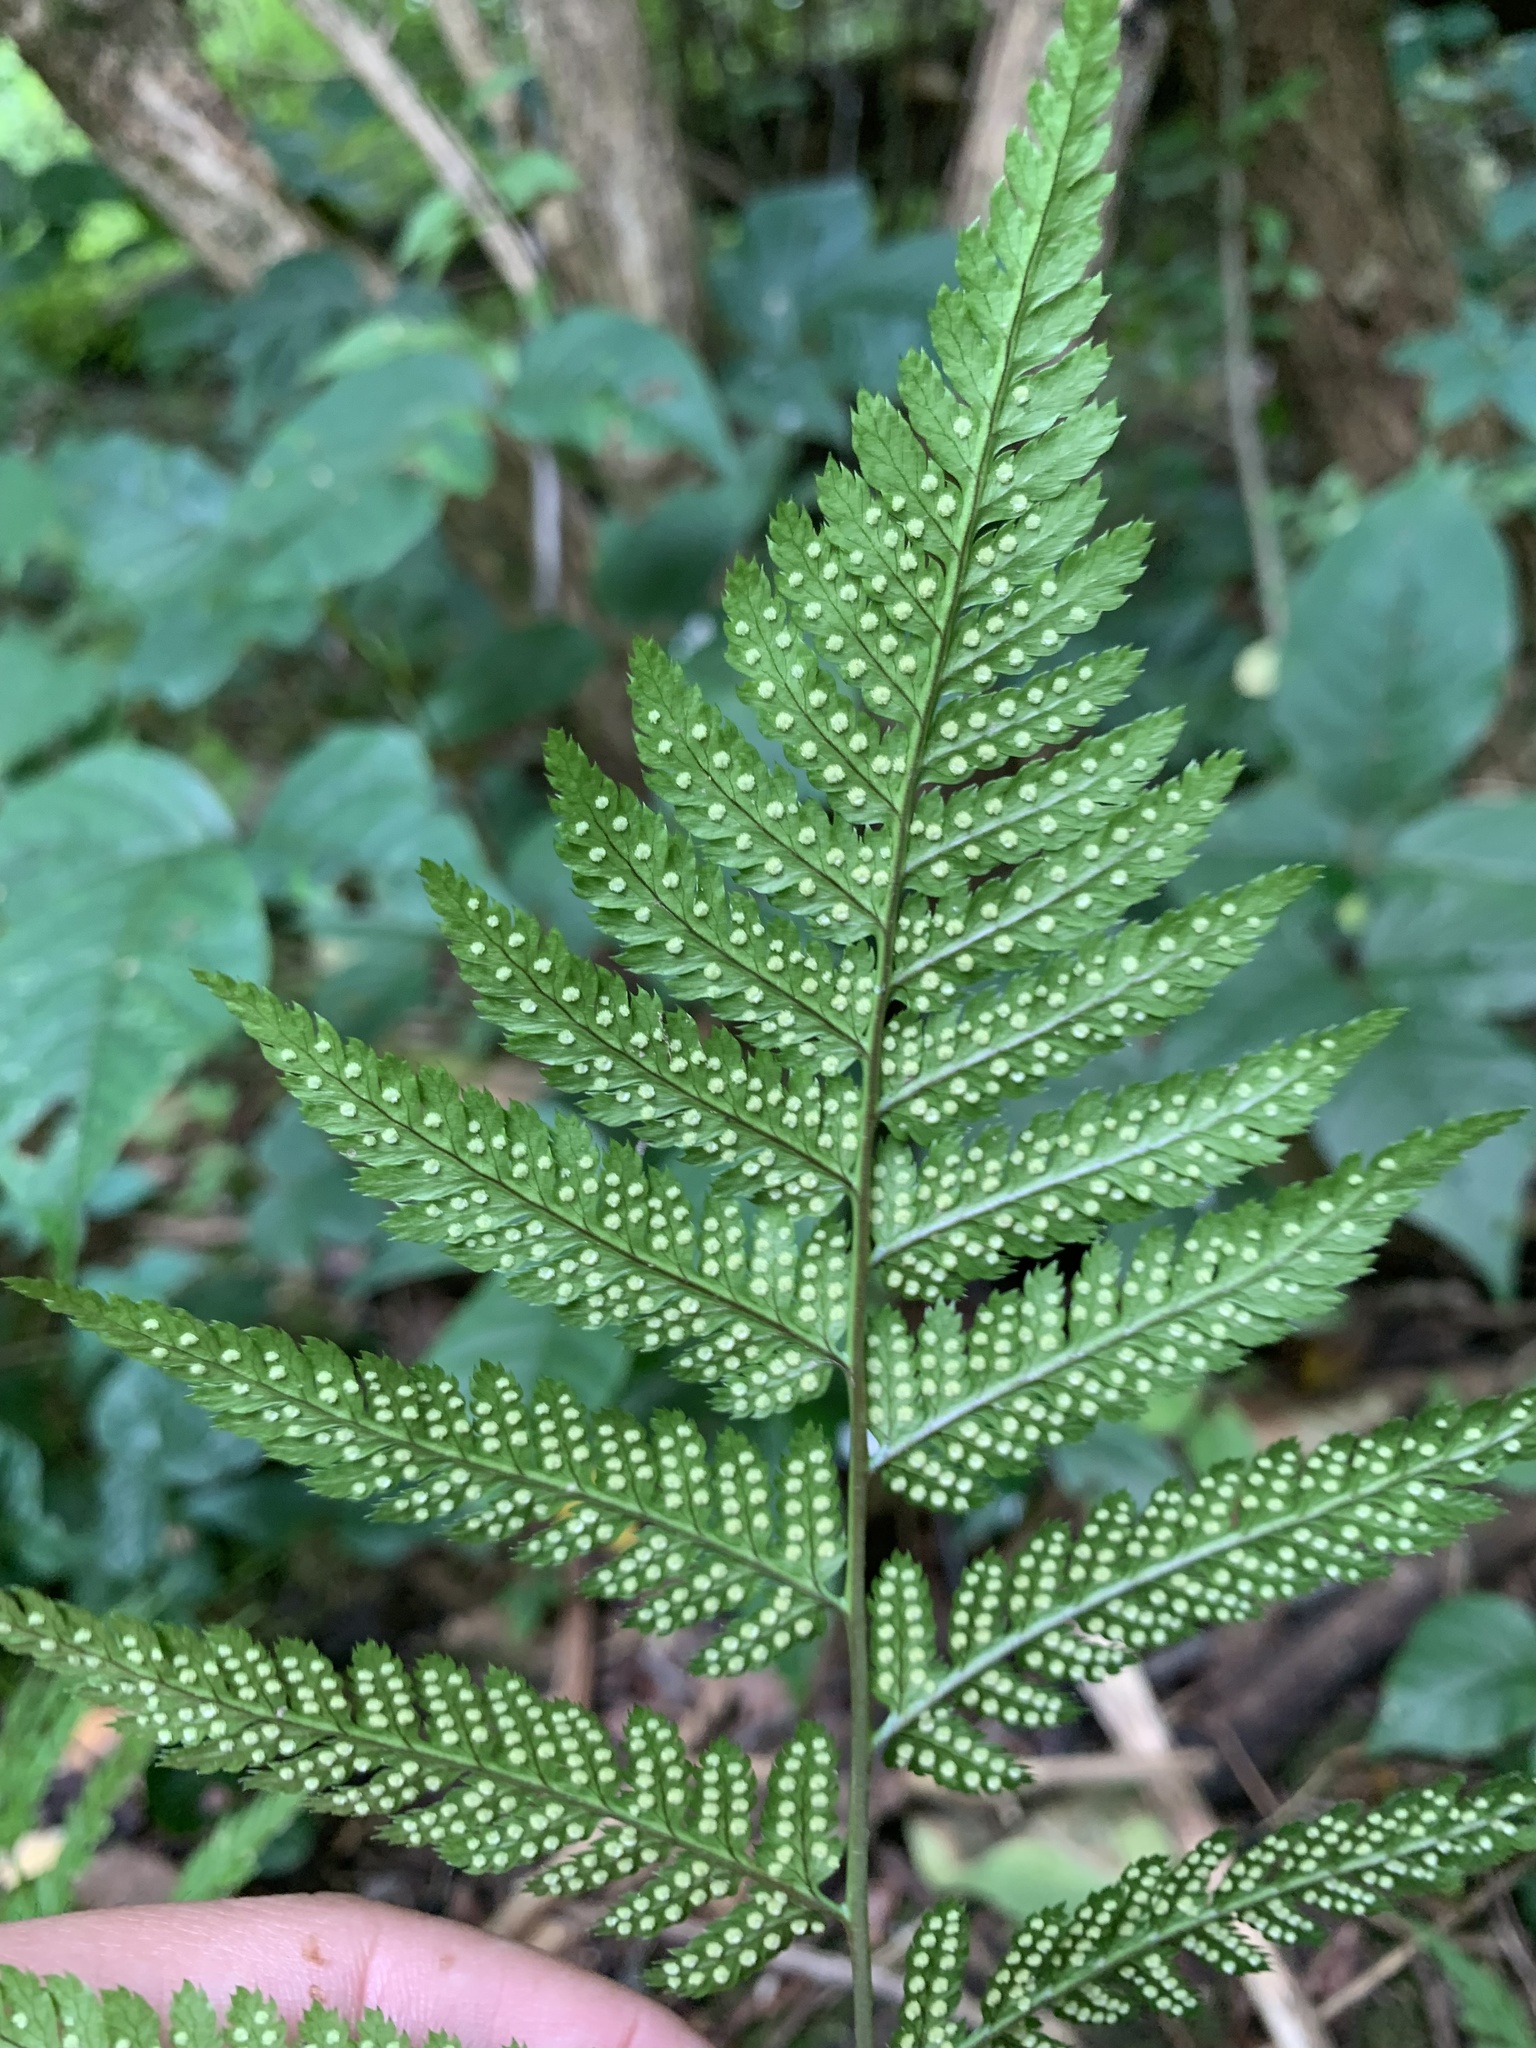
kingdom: Plantae
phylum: Tracheophyta
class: Polypodiopsida
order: Polypodiales
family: Dryopteridaceae
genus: Dryopteris
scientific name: Dryopteris carthusiana
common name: Narrow buckler-fern
